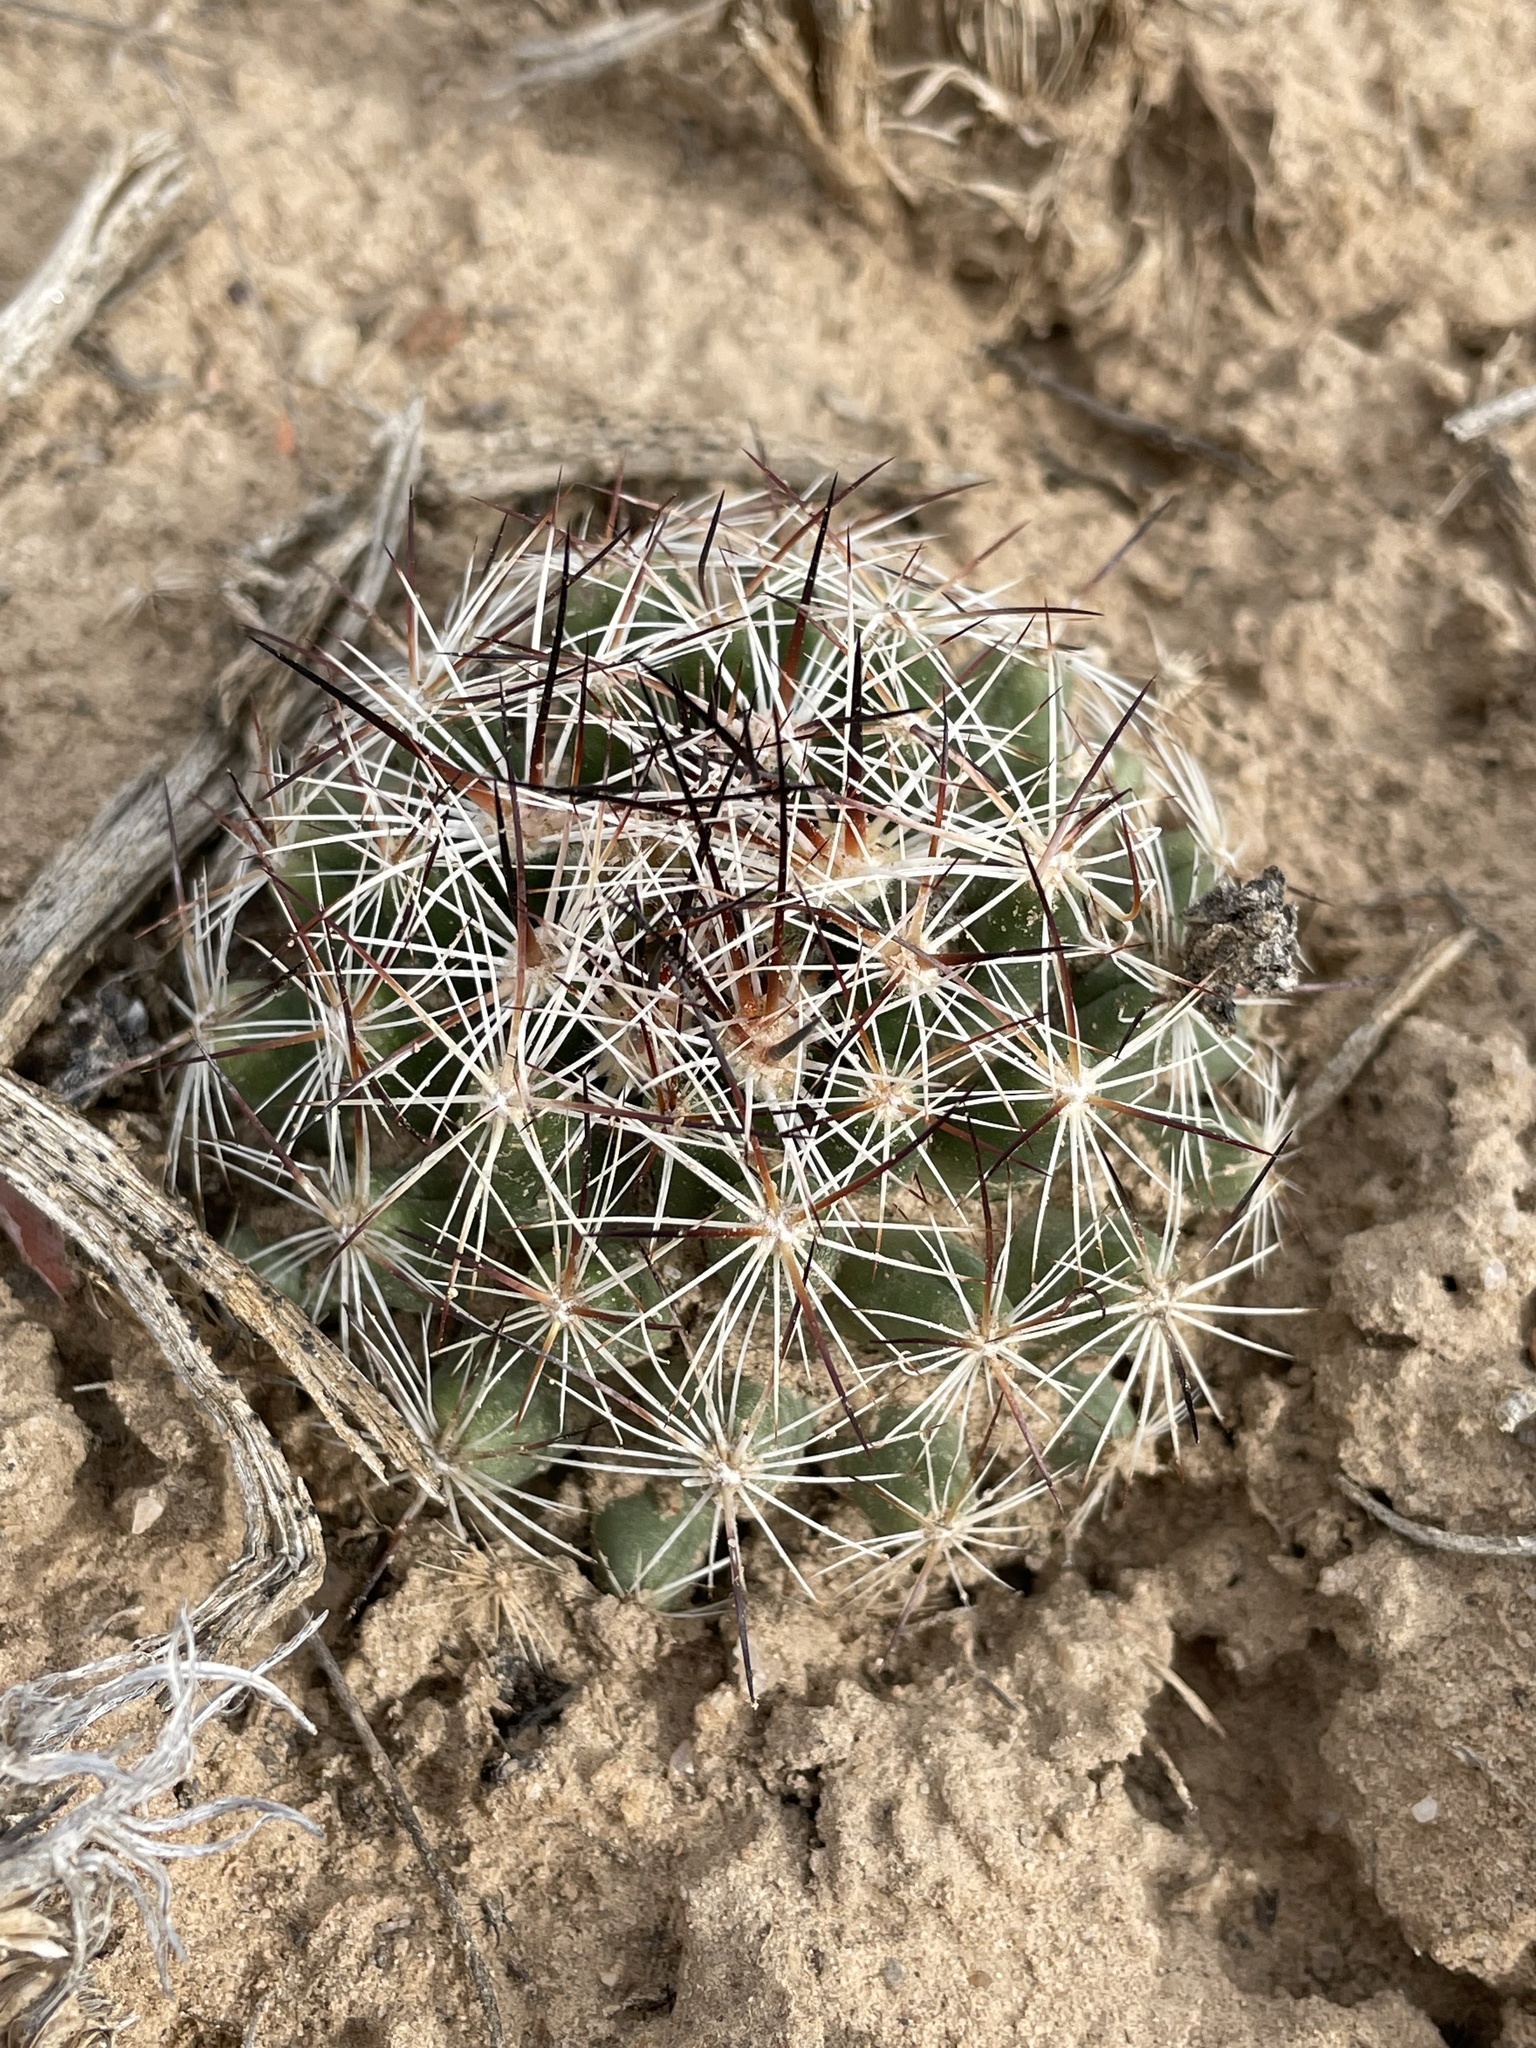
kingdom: Plantae
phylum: Tracheophyta
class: Magnoliopsida
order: Caryophyllales
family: Cactaceae
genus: Pelecyphora
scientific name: Pelecyphora vivipara
